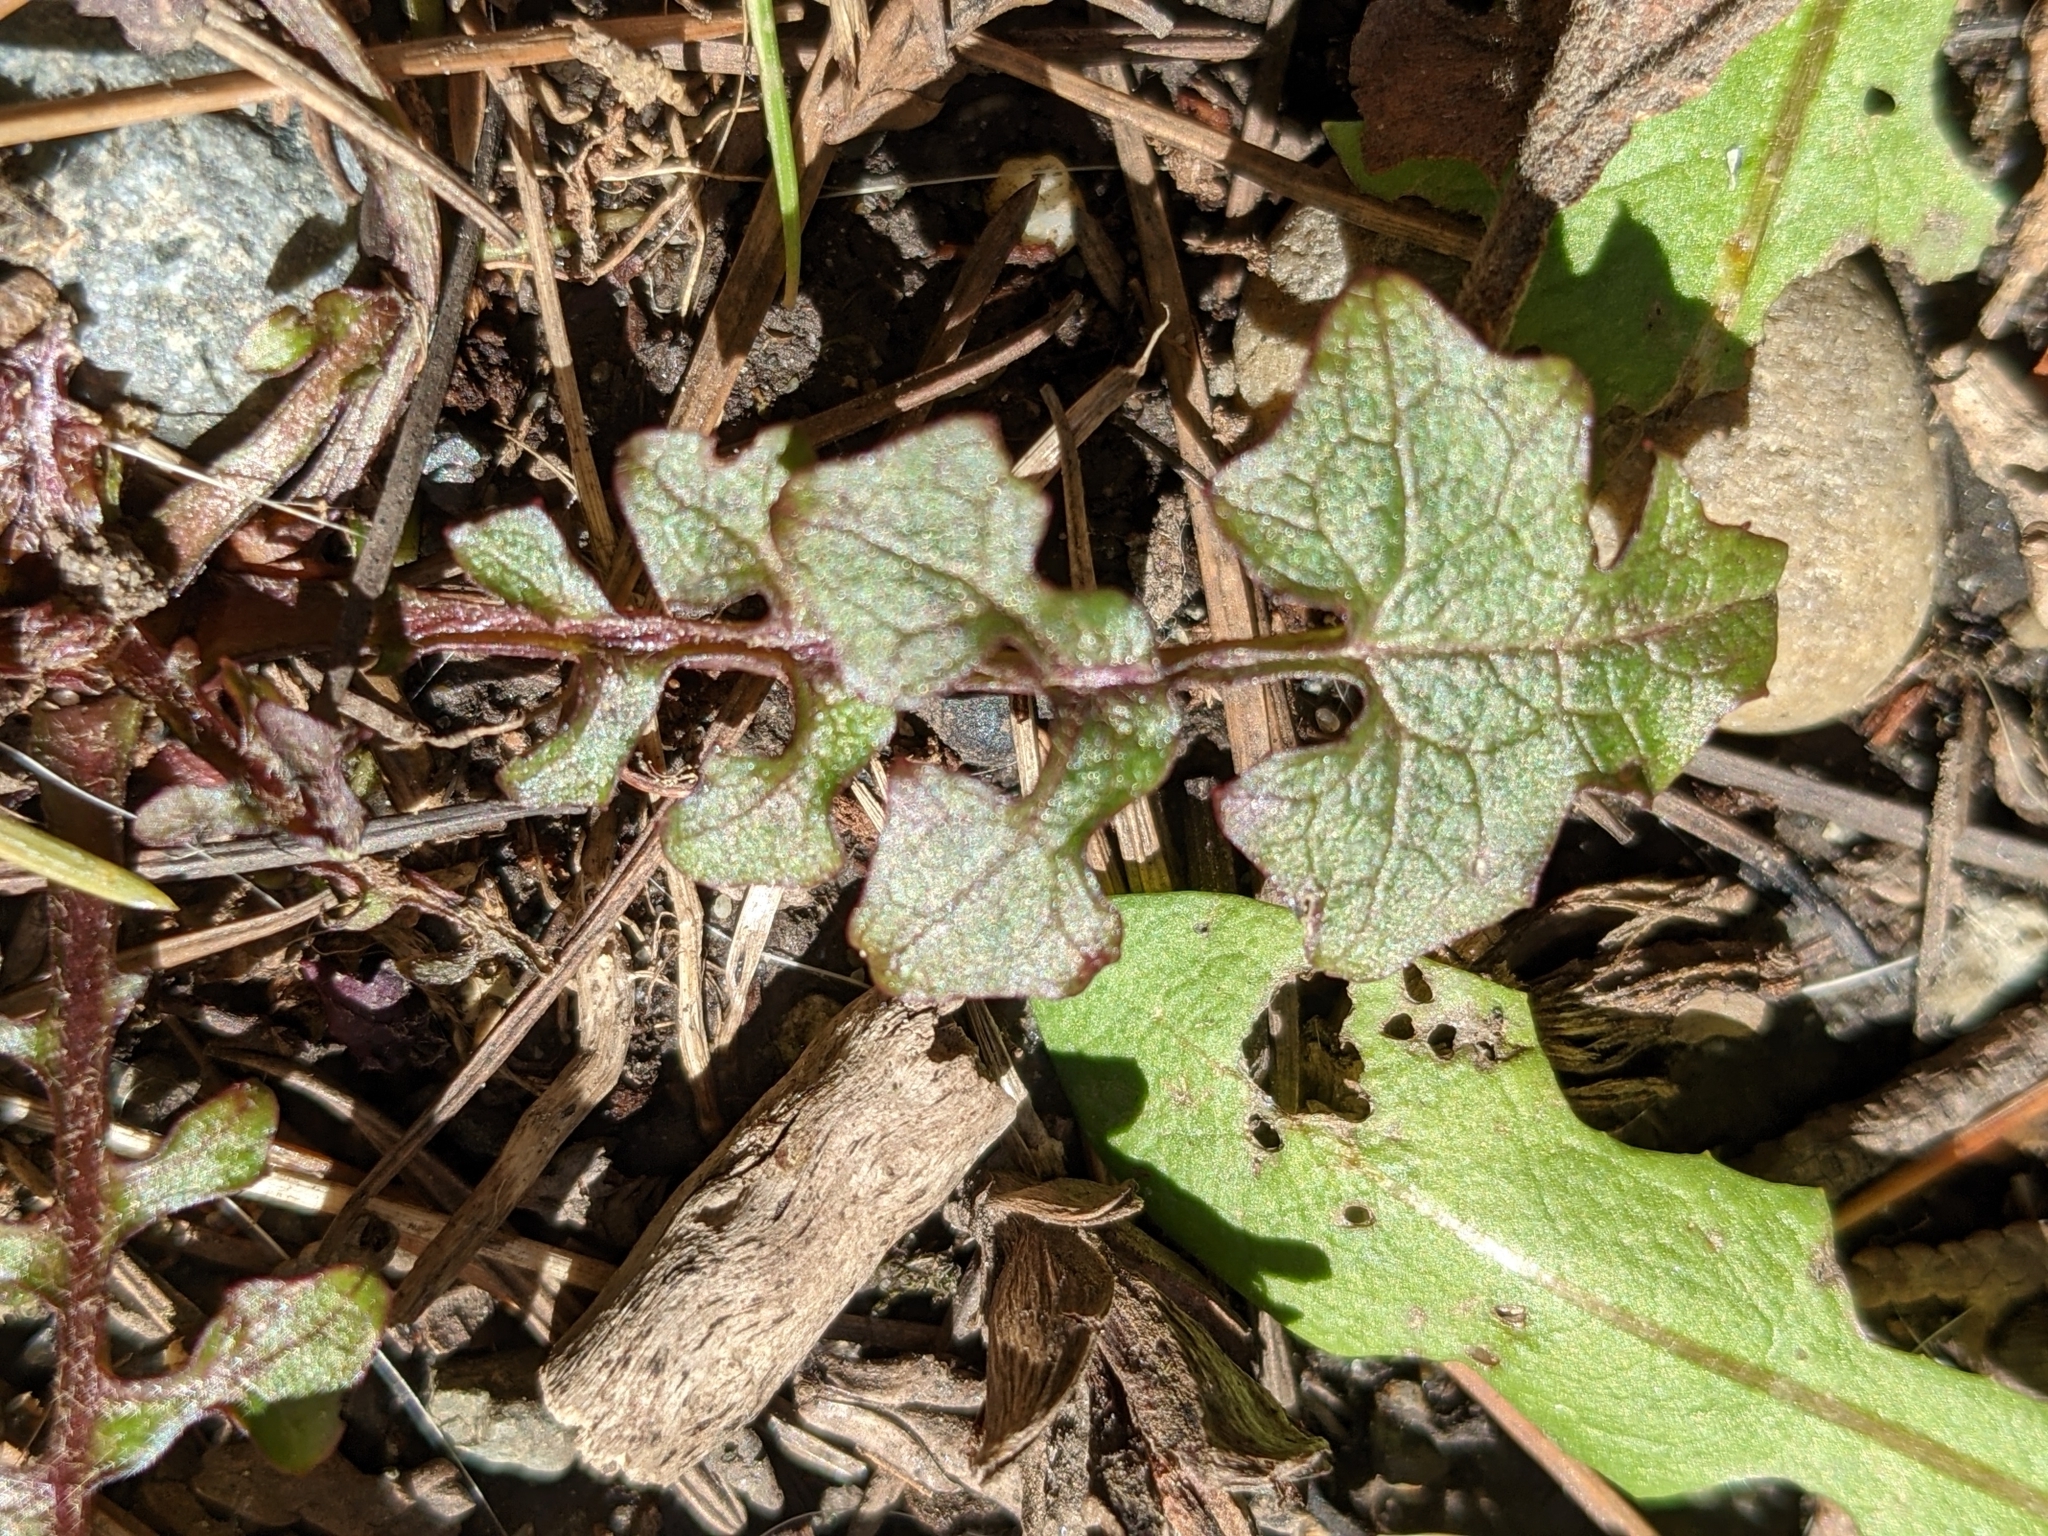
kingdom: Plantae
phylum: Tracheophyta
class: Magnoliopsida
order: Asterales
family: Asteraceae
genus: Mycelis
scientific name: Mycelis muralis
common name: Wall lettuce
